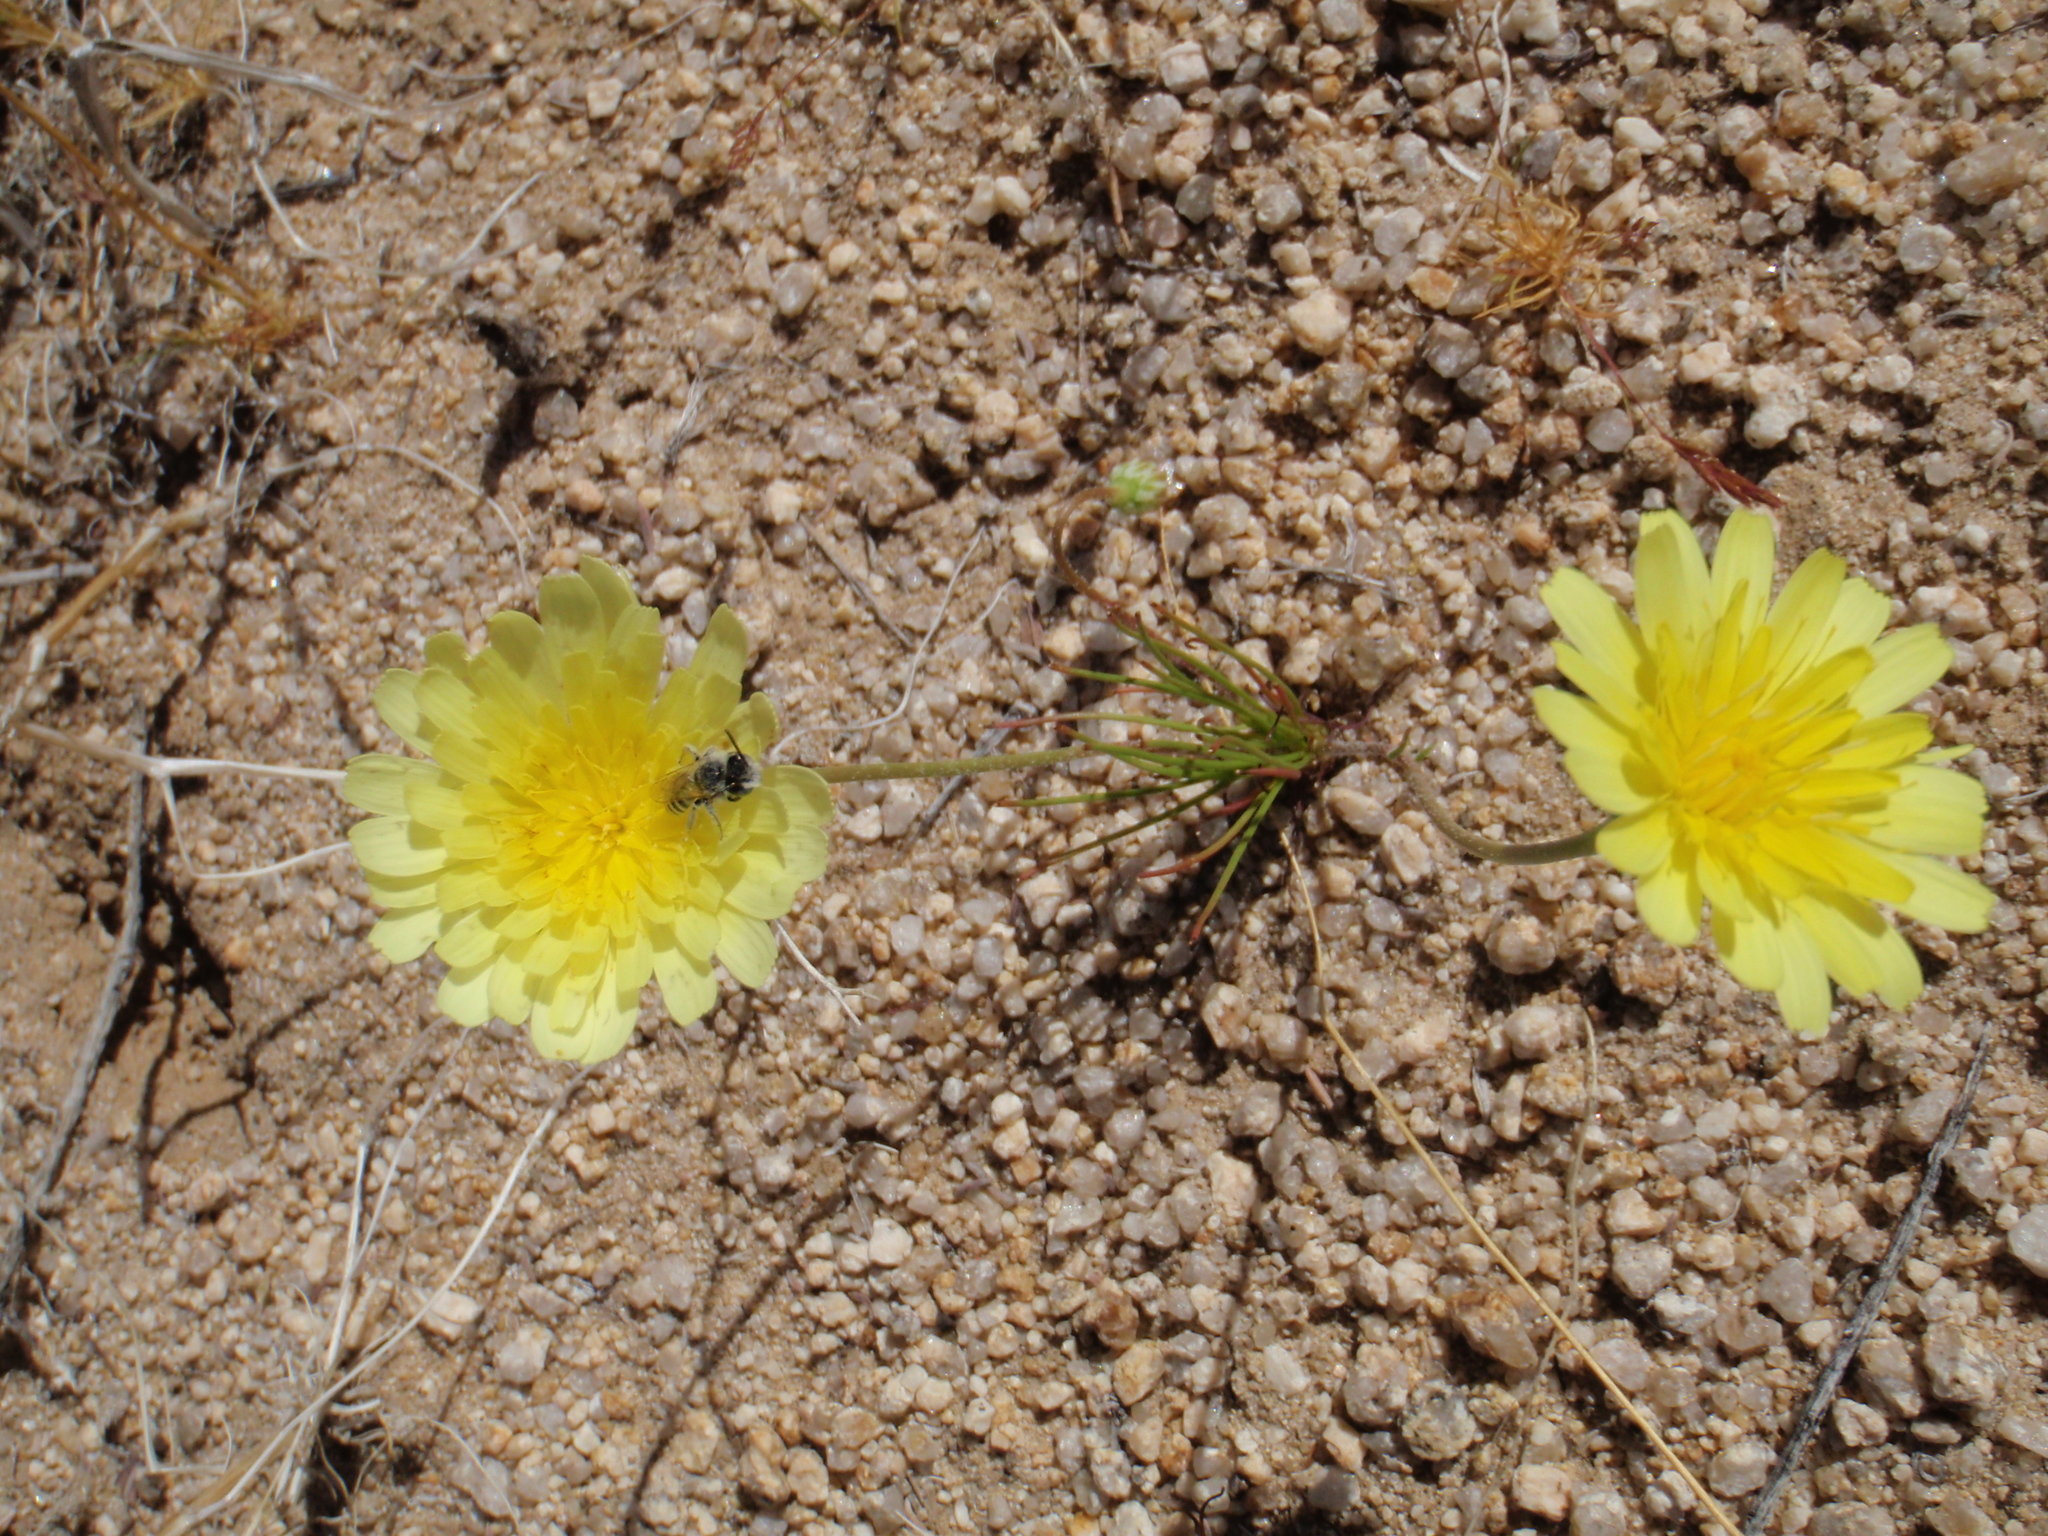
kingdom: Plantae
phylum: Tracheophyta
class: Magnoliopsida
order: Asterales
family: Asteraceae
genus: Malacothrix
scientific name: Malacothrix glabrata
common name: Smooth desert-dandelion
